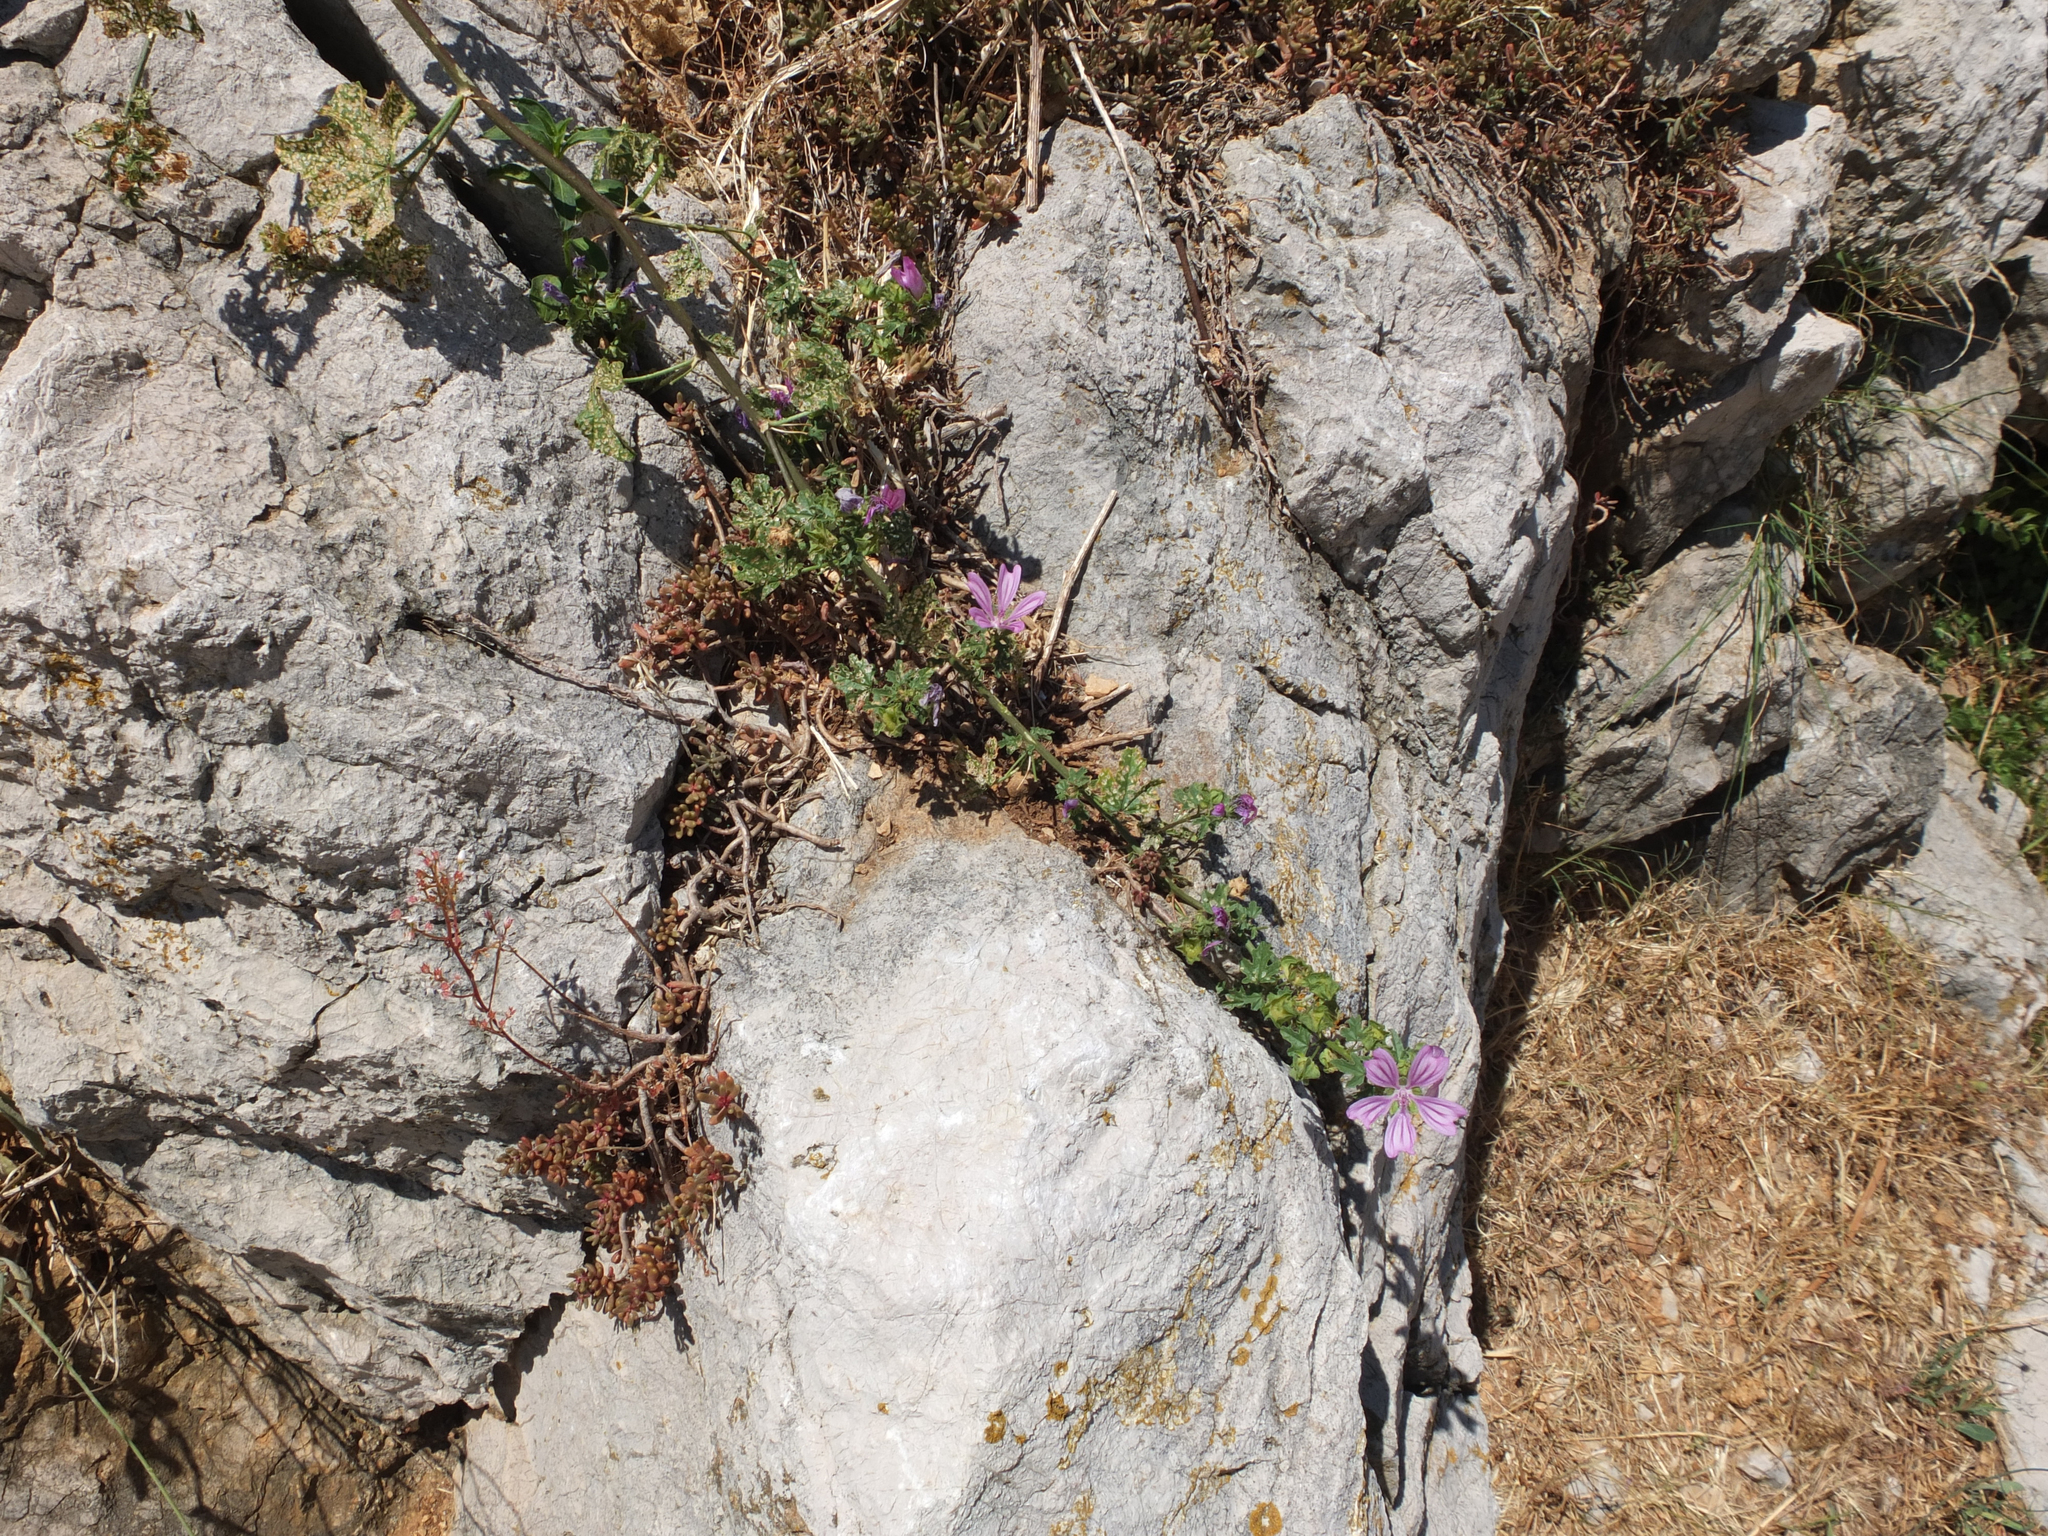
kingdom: Plantae
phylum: Tracheophyta
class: Magnoliopsida
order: Malvales
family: Malvaceae
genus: Malva
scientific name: Malva sylvestris
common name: Common mallow
